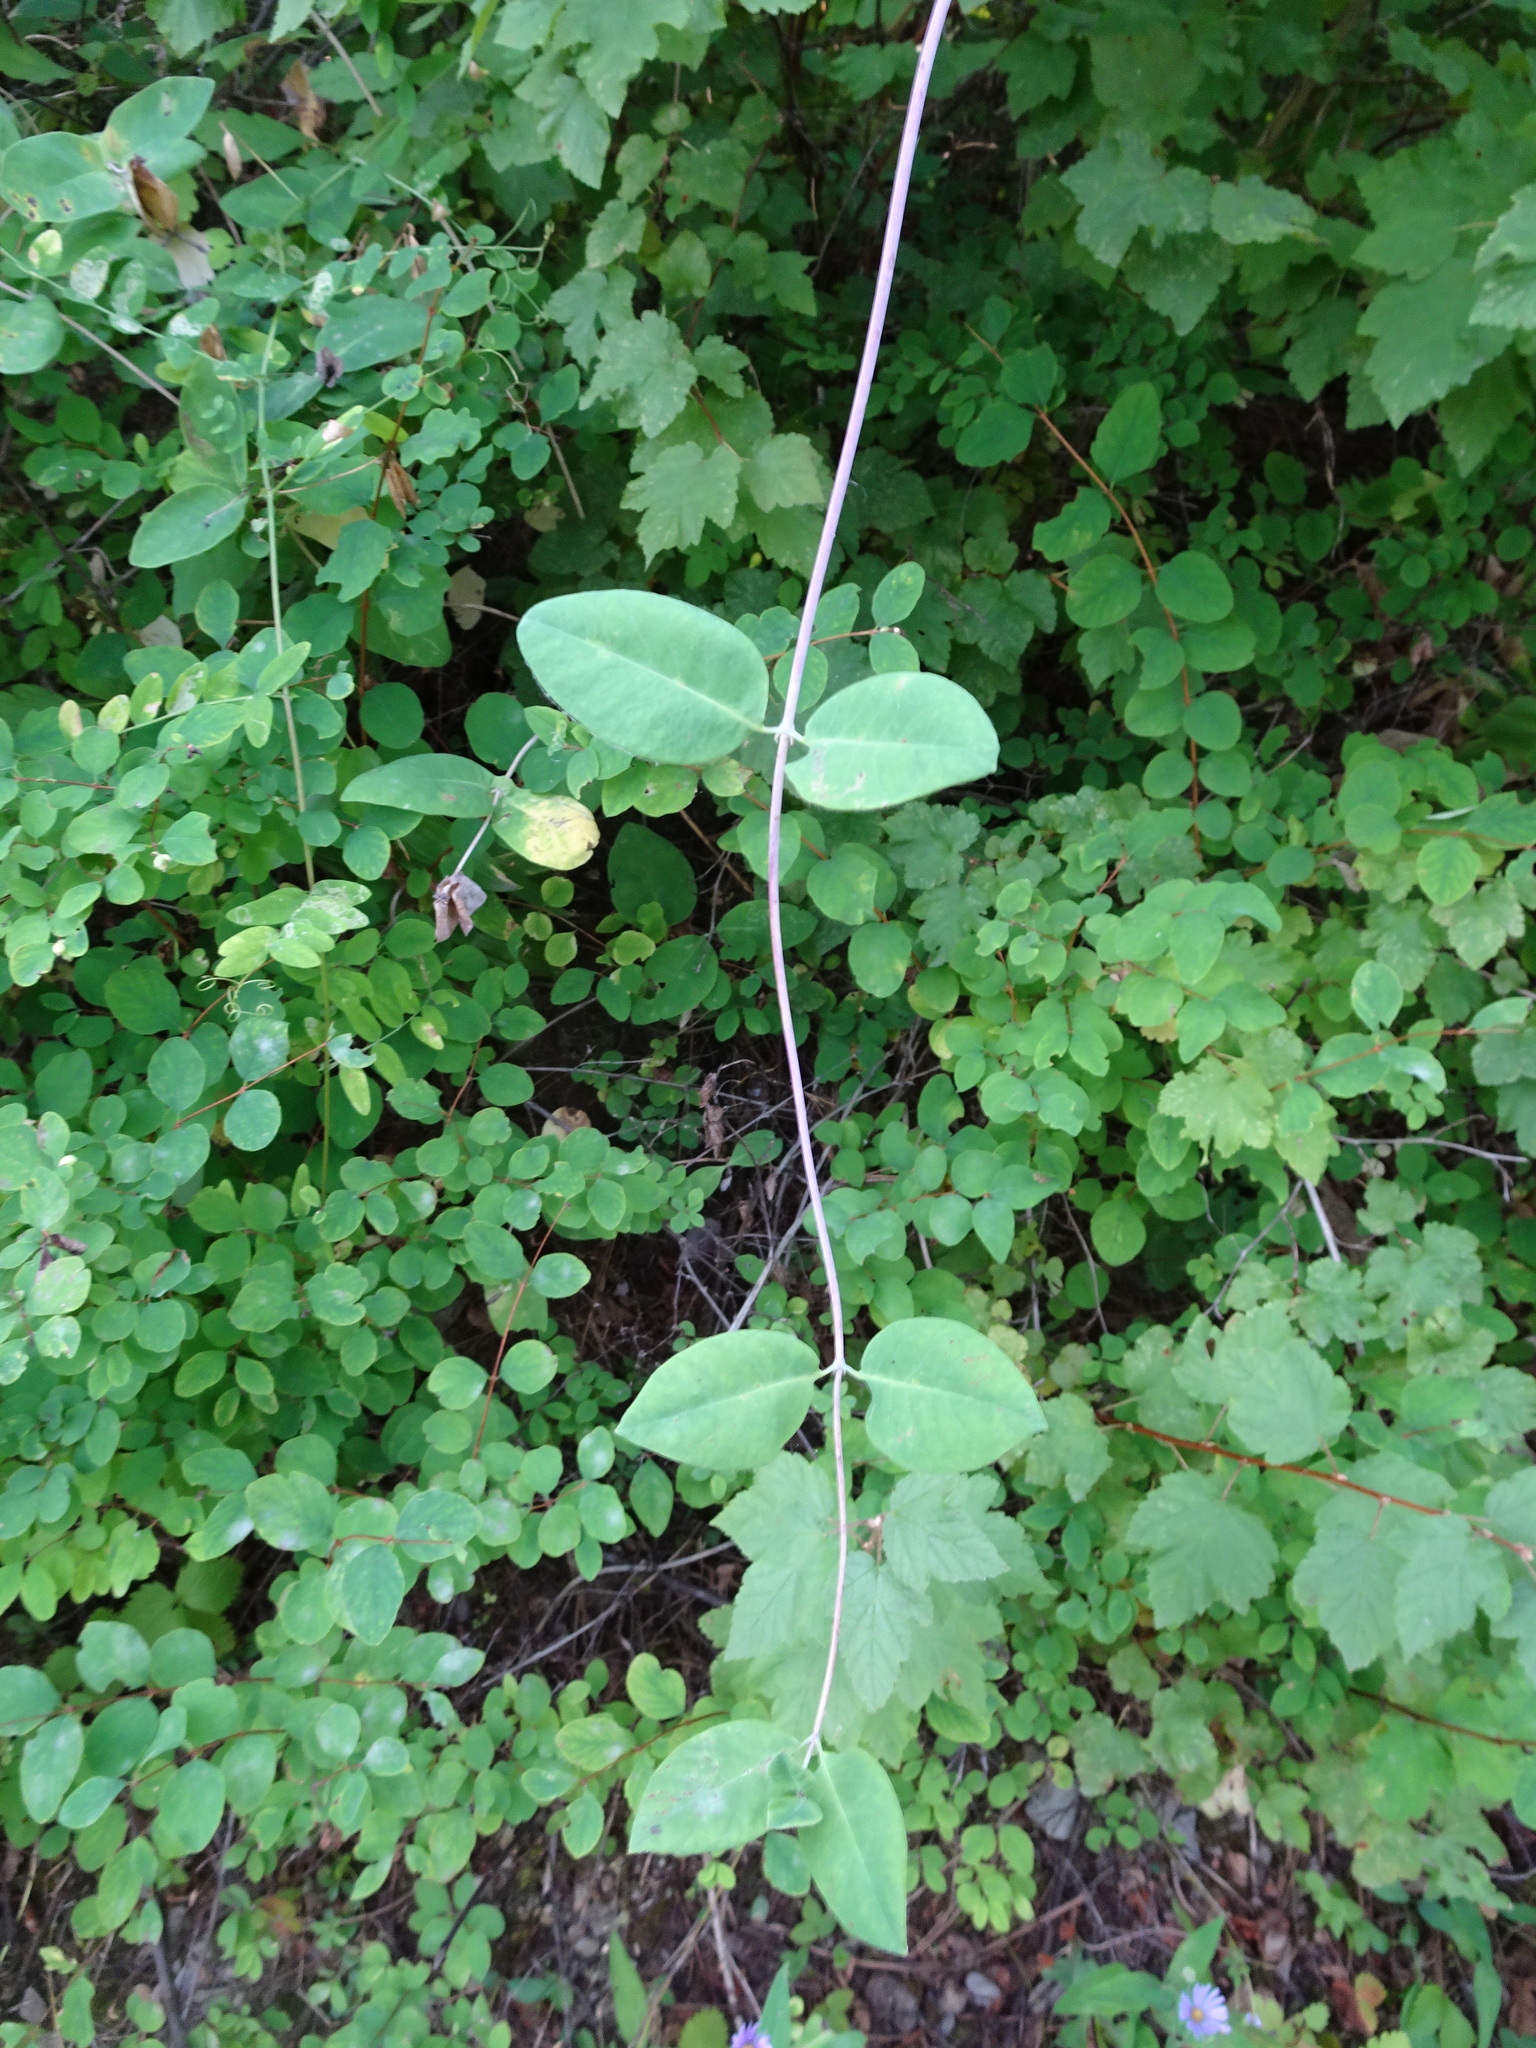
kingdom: Plantae
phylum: Tracheophyta
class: Magnoliopsida
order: Dipsacales
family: Caprifoliaceae
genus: Lonicera
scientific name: Lonicera ciliosa
